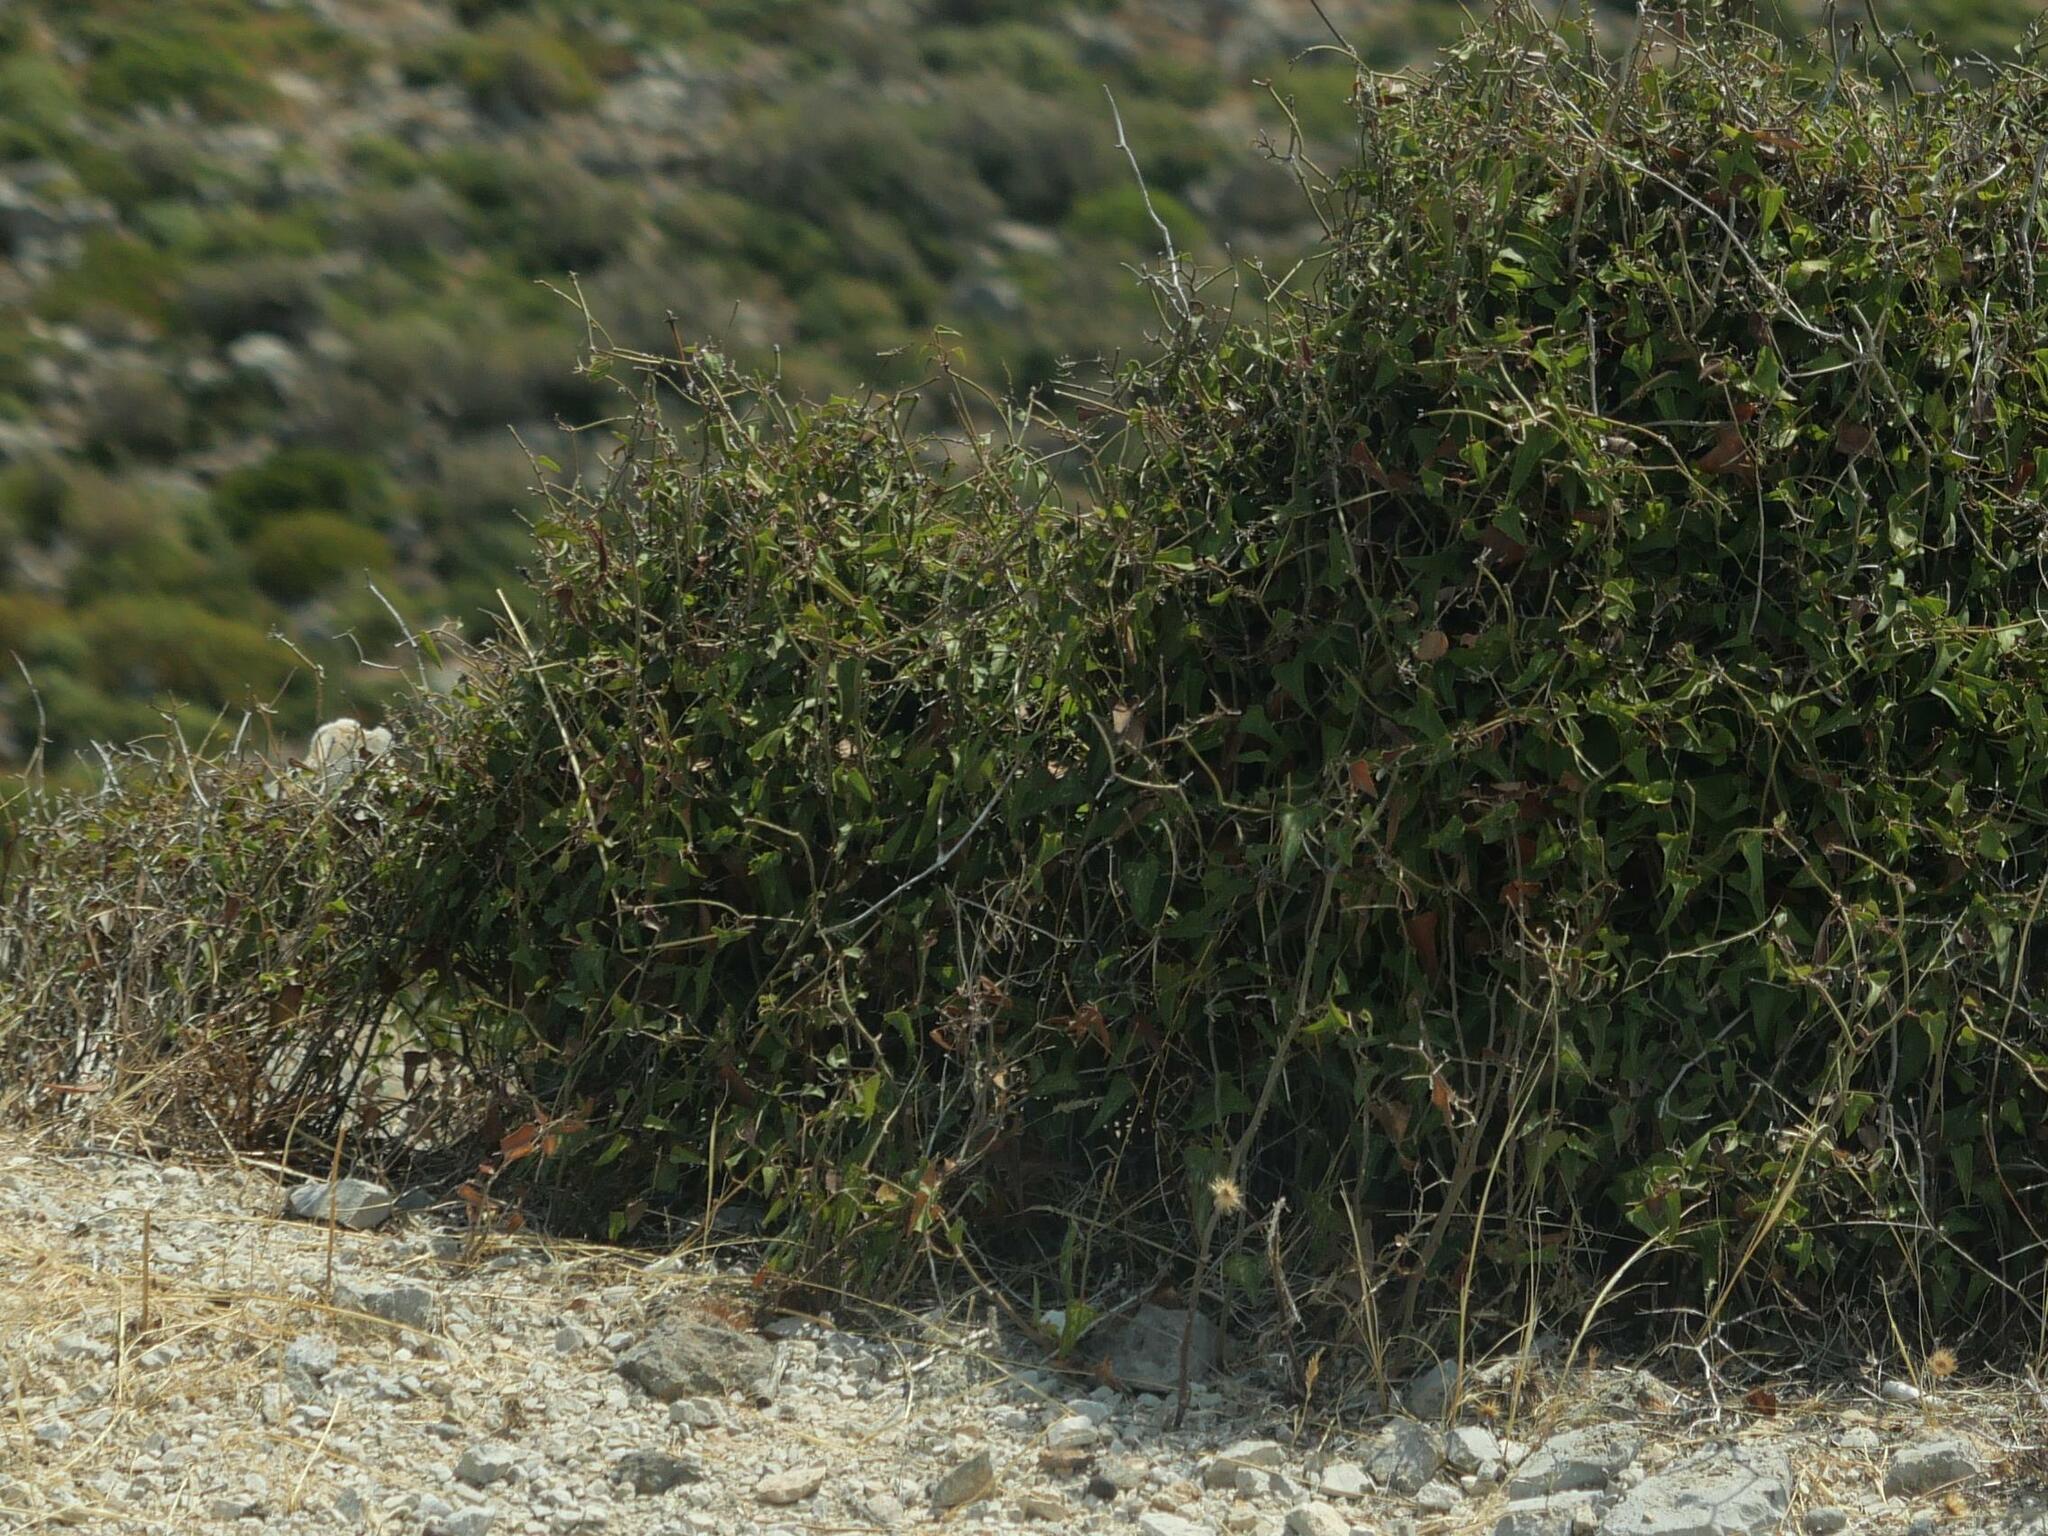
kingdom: Plantae
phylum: Tracheophyta
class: Liliopsida
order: Liliales
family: Smilacaceae
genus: Smilax
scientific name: Smilax aspera
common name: Common smilax
